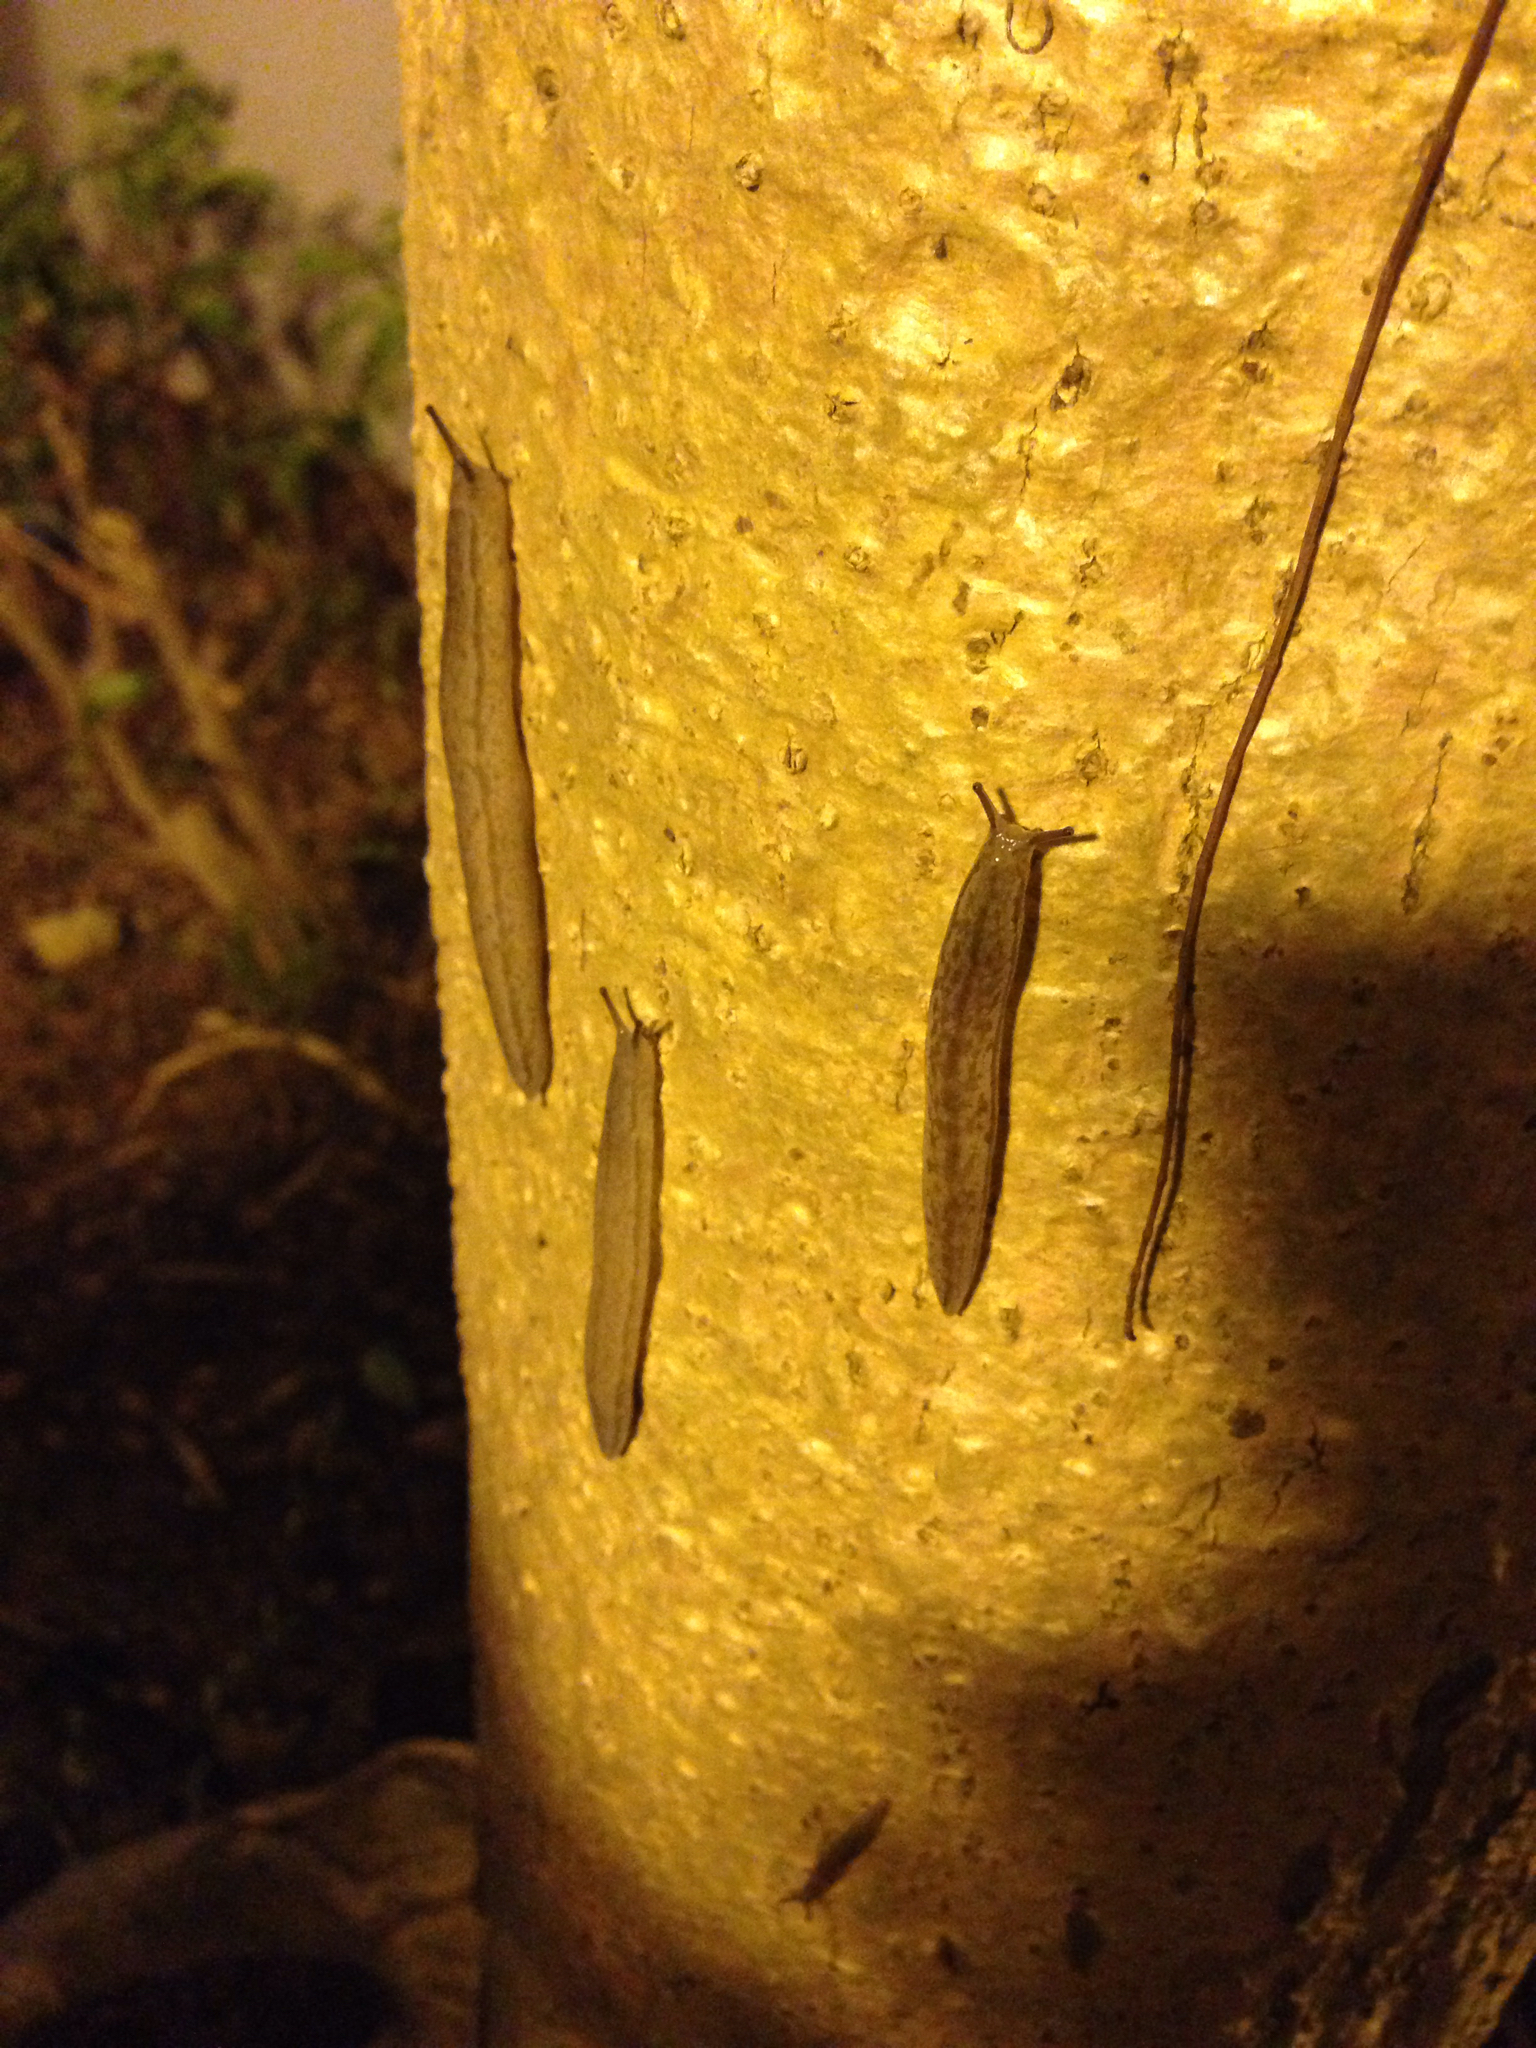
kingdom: Animalia
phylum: Mollusca
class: Gastropoda
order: Stylommatophora
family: Philomycidae
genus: Meghimatium
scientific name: Meghimatium bilineatum
